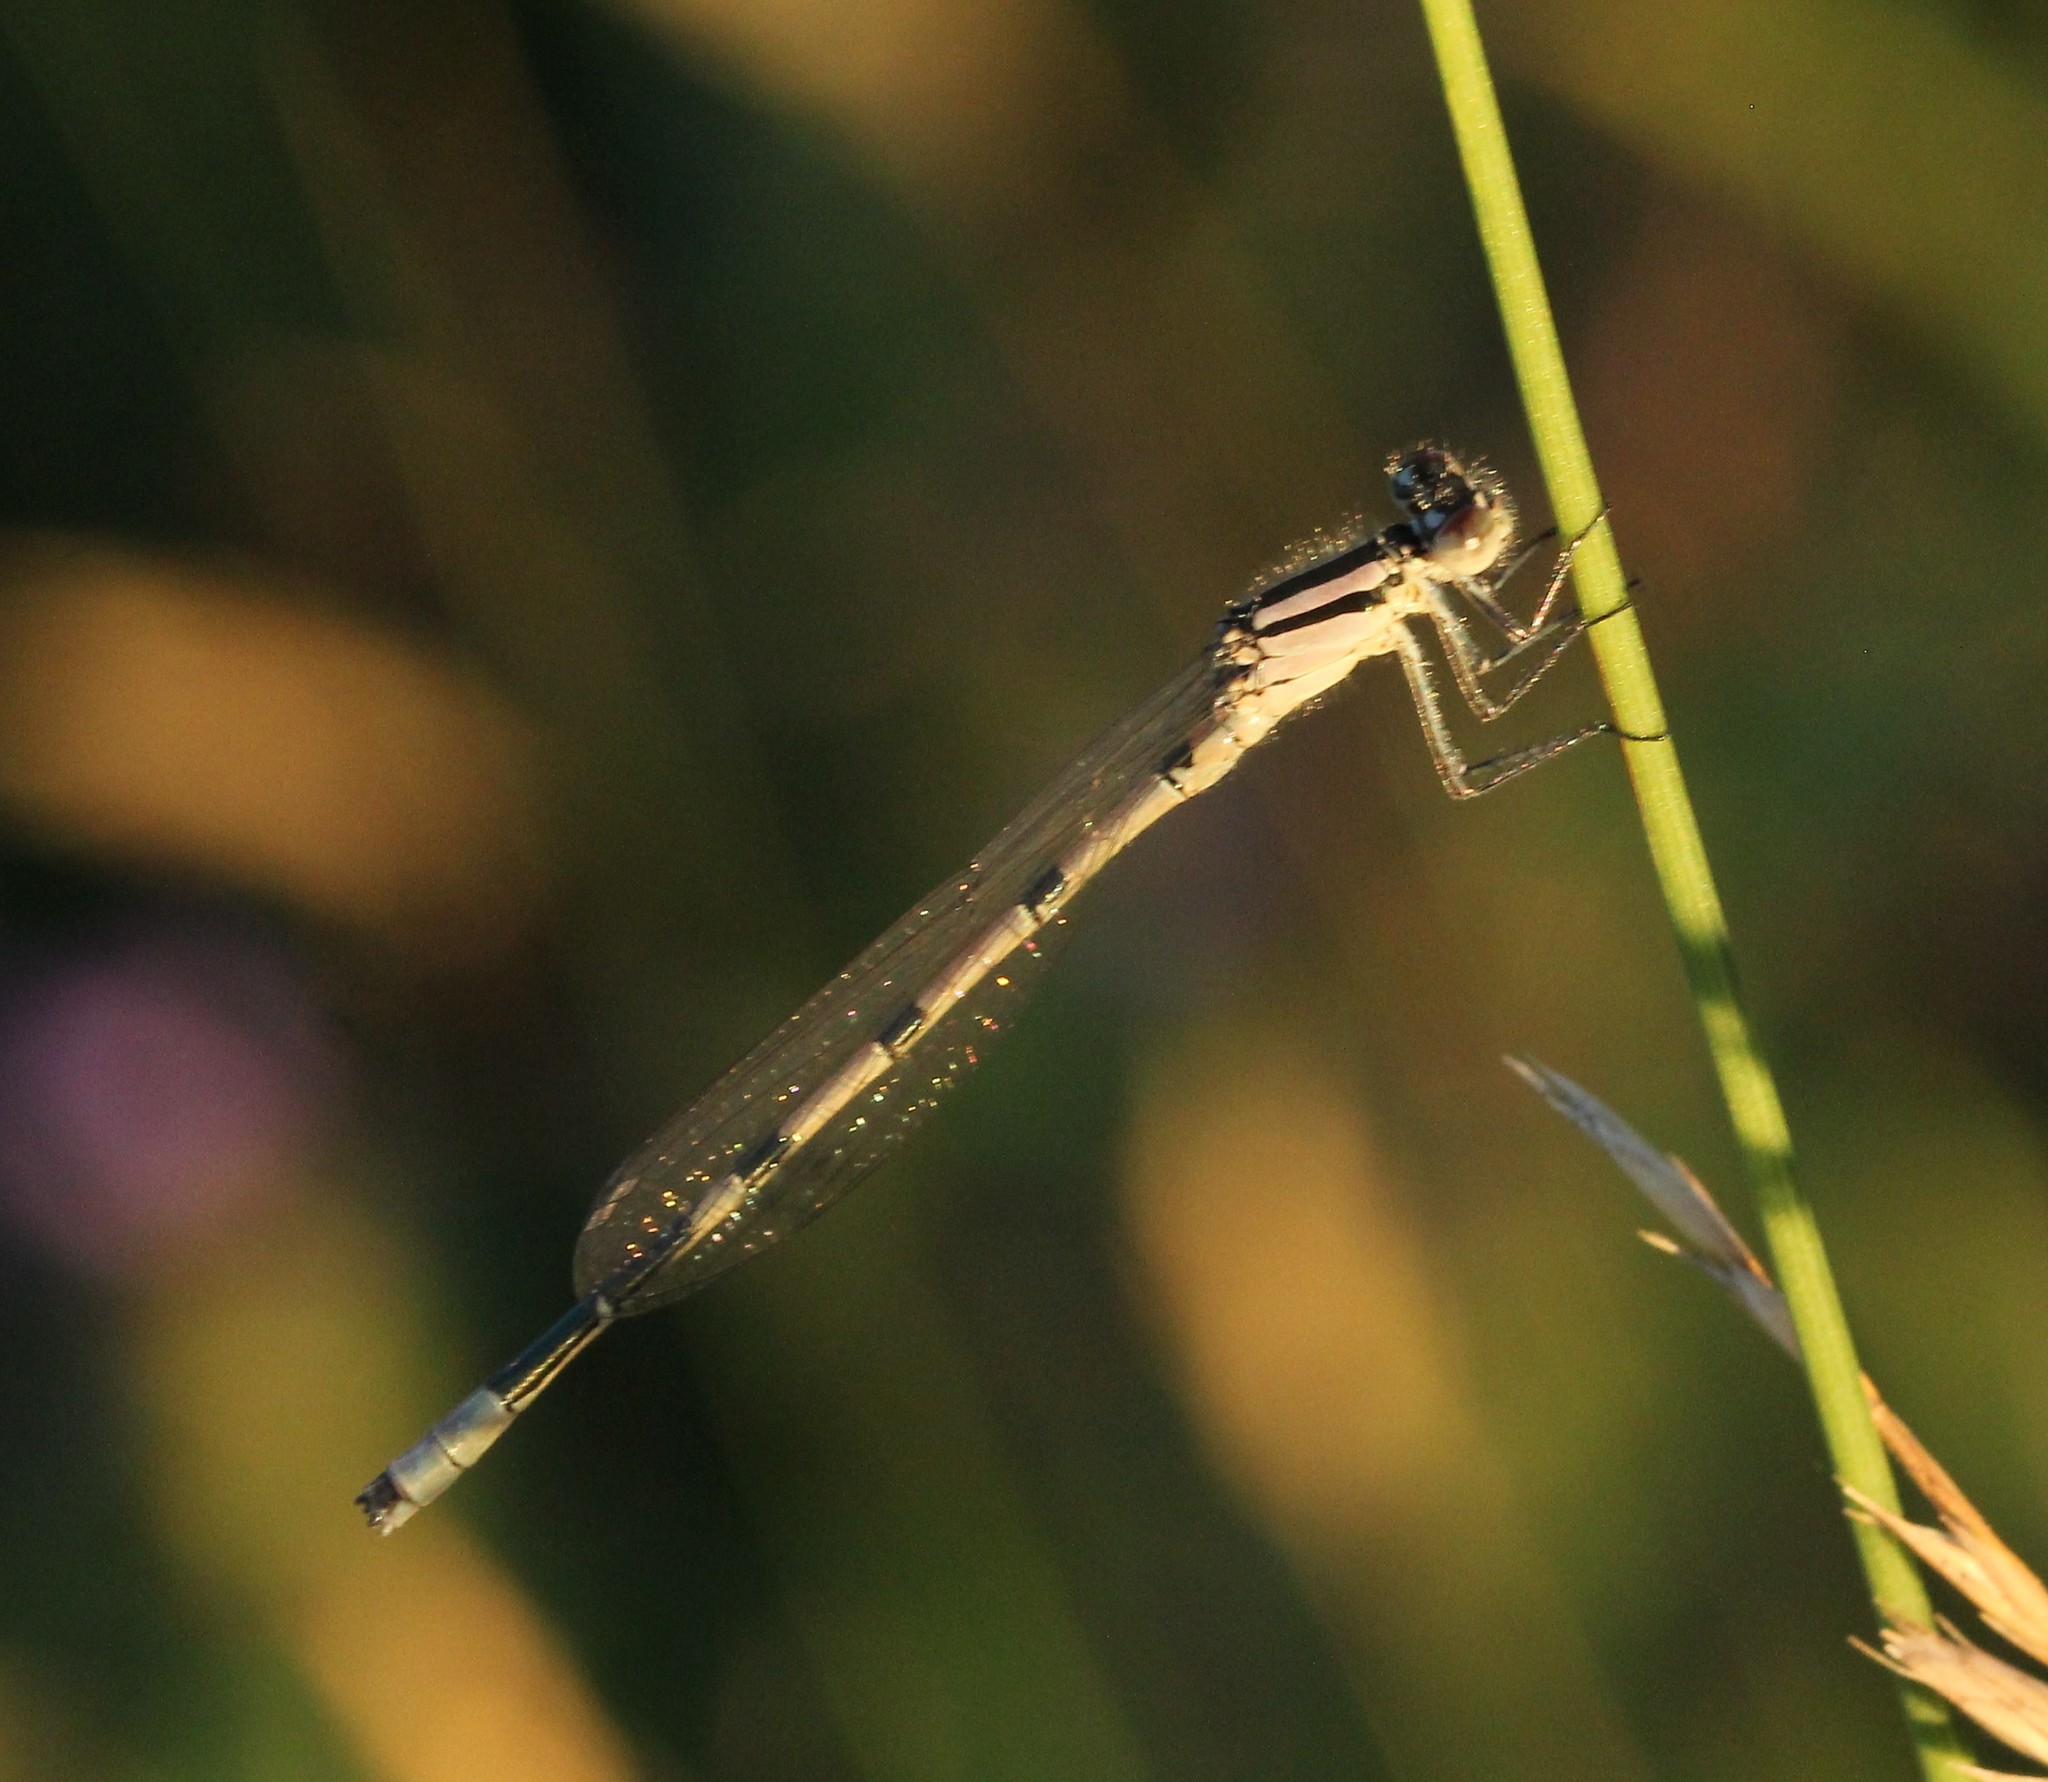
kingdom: Animalia
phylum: Arthropoda
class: Insecta
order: Odonata
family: Coenagrionidae
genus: Enallagma
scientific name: Enallagma ebrium
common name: Marsh bluet
